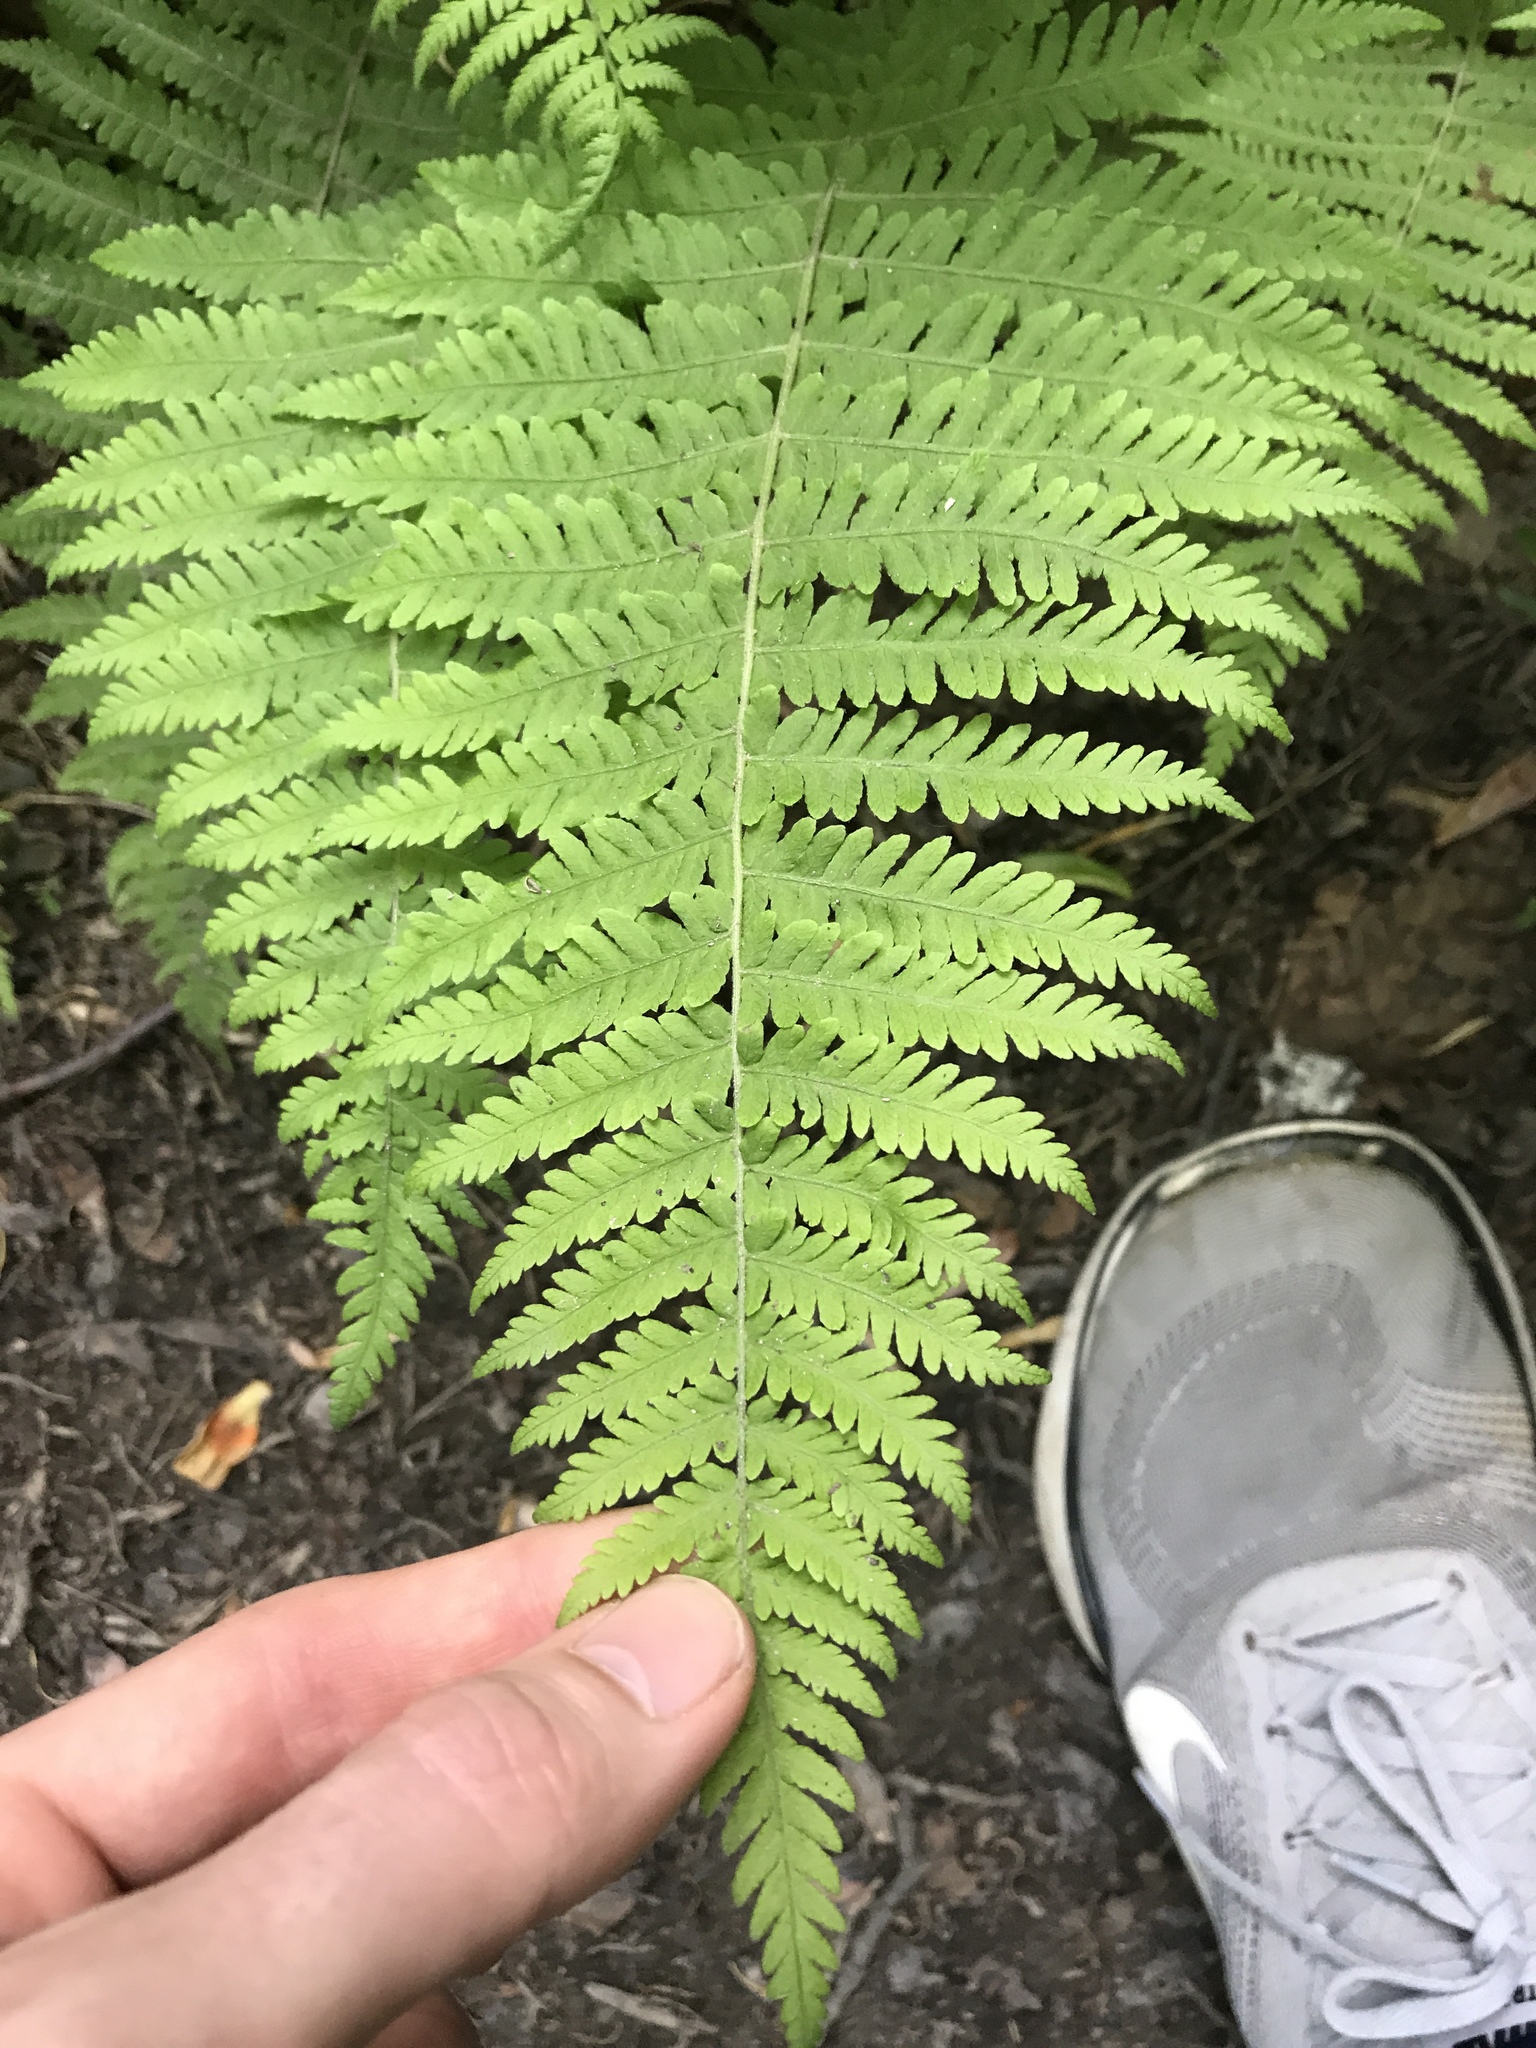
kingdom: Plantae
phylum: Tracheophyta
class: Polypodiopsida
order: Polypodiales
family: Thelypteridaceae
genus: Amauropelta
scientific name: Amauropelta noveboracensis
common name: New york fern
